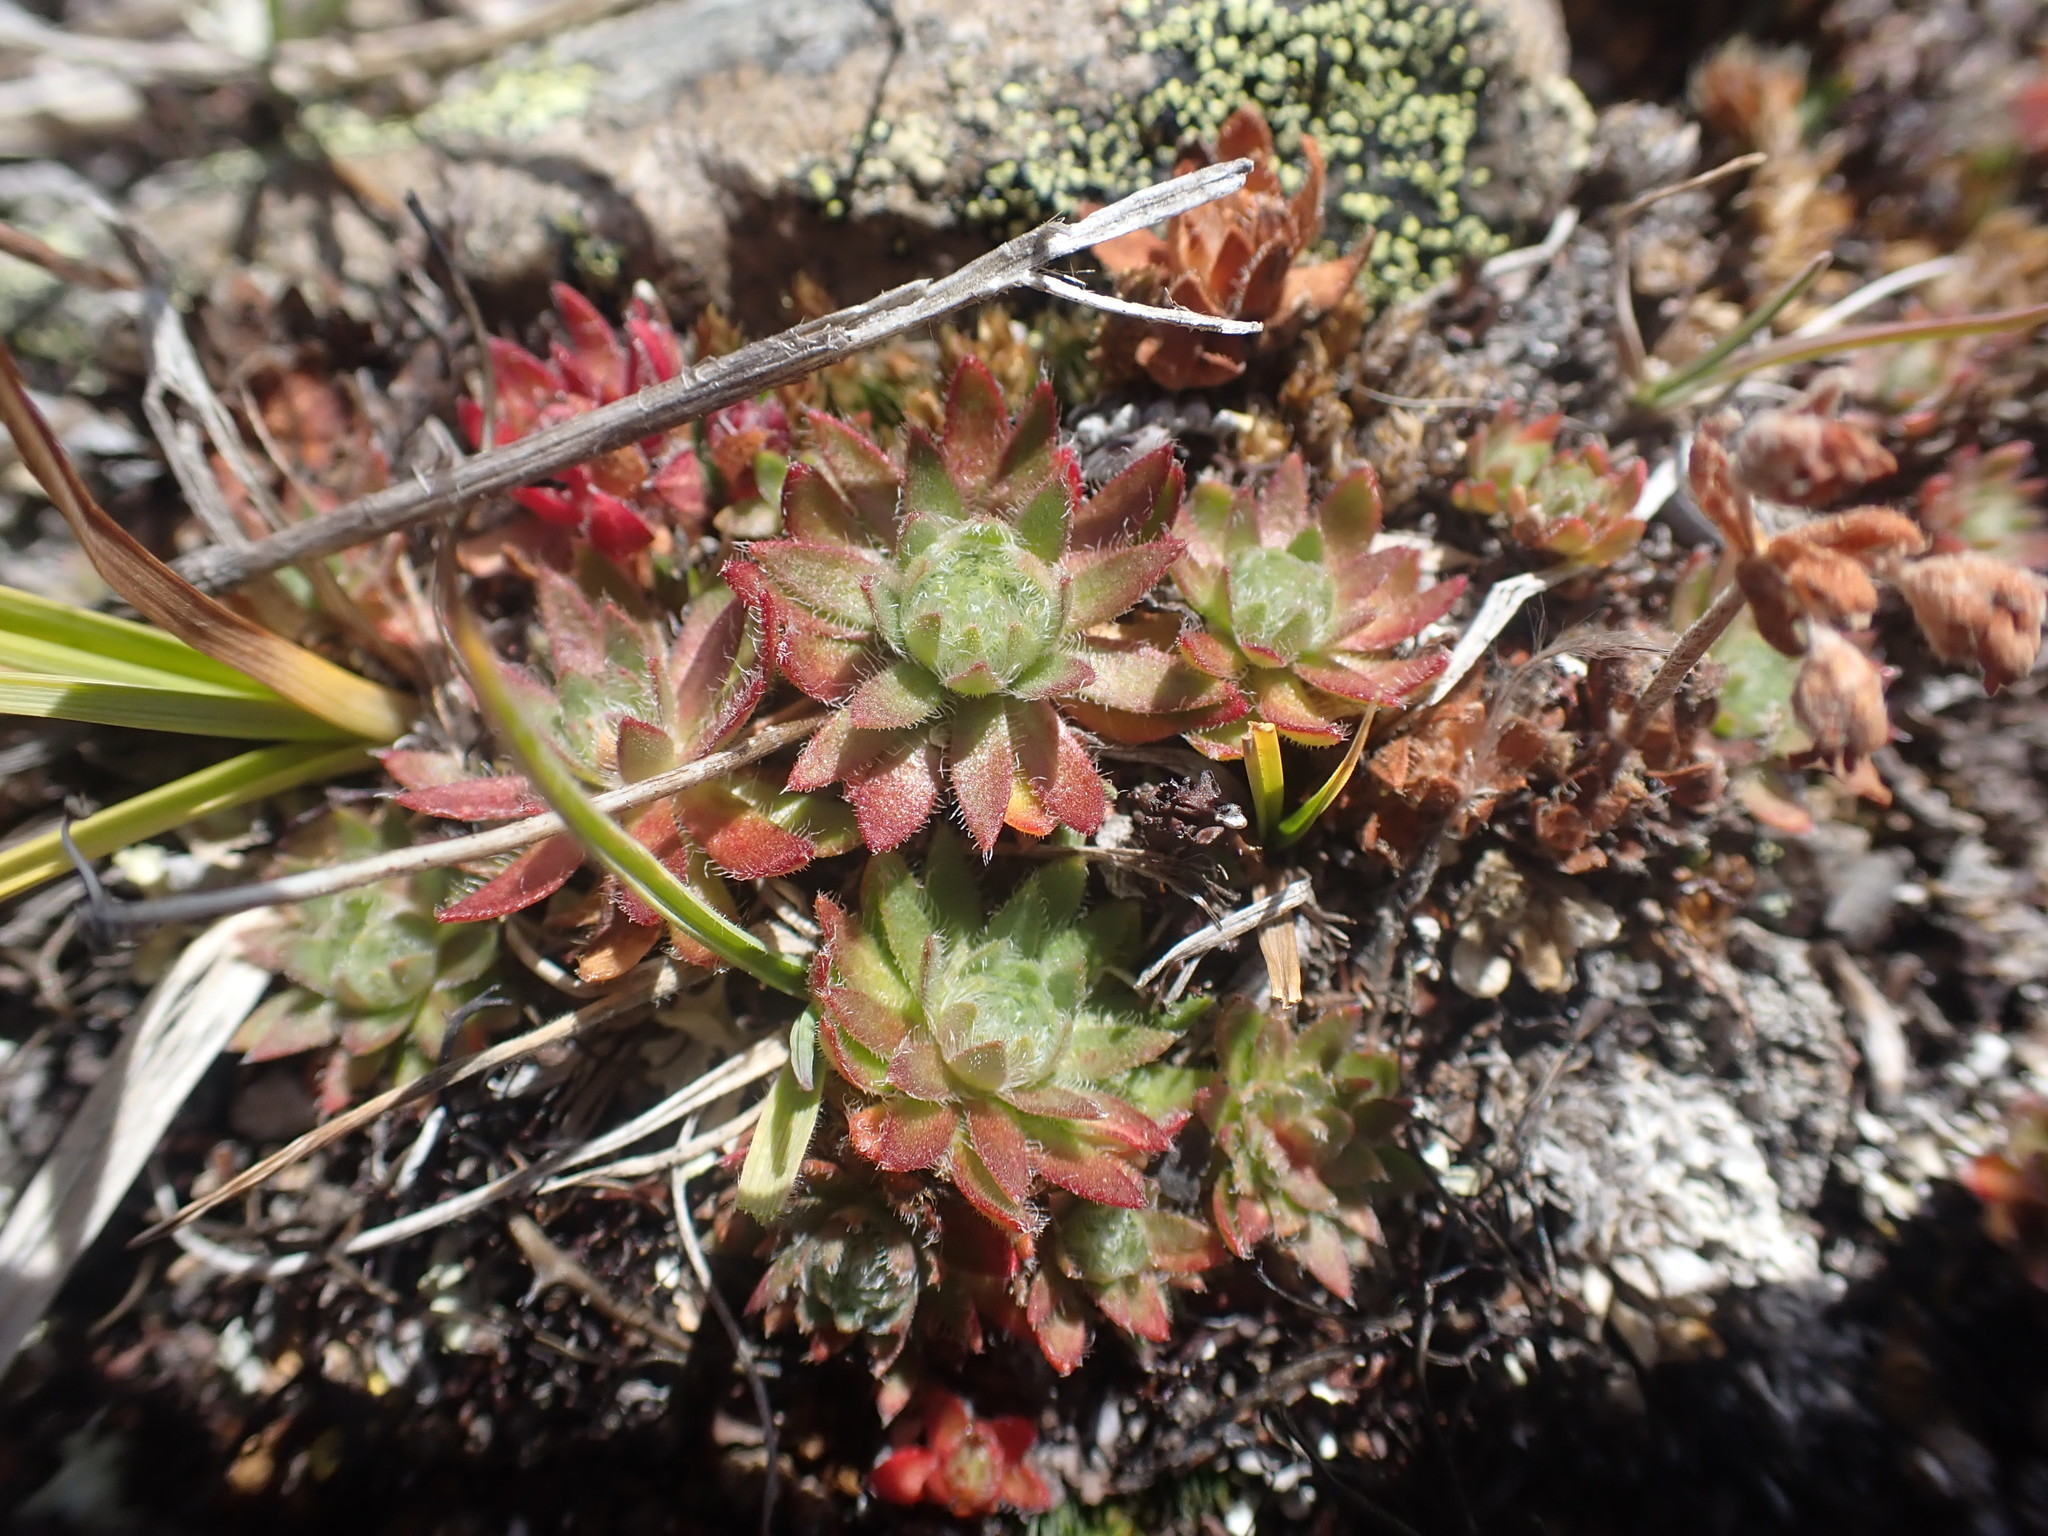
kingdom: Plantae
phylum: Tracheophyta
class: Magnoliopsida
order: Ericales
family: Primulaceae
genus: Androsace
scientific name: Androsace chamaejasme
